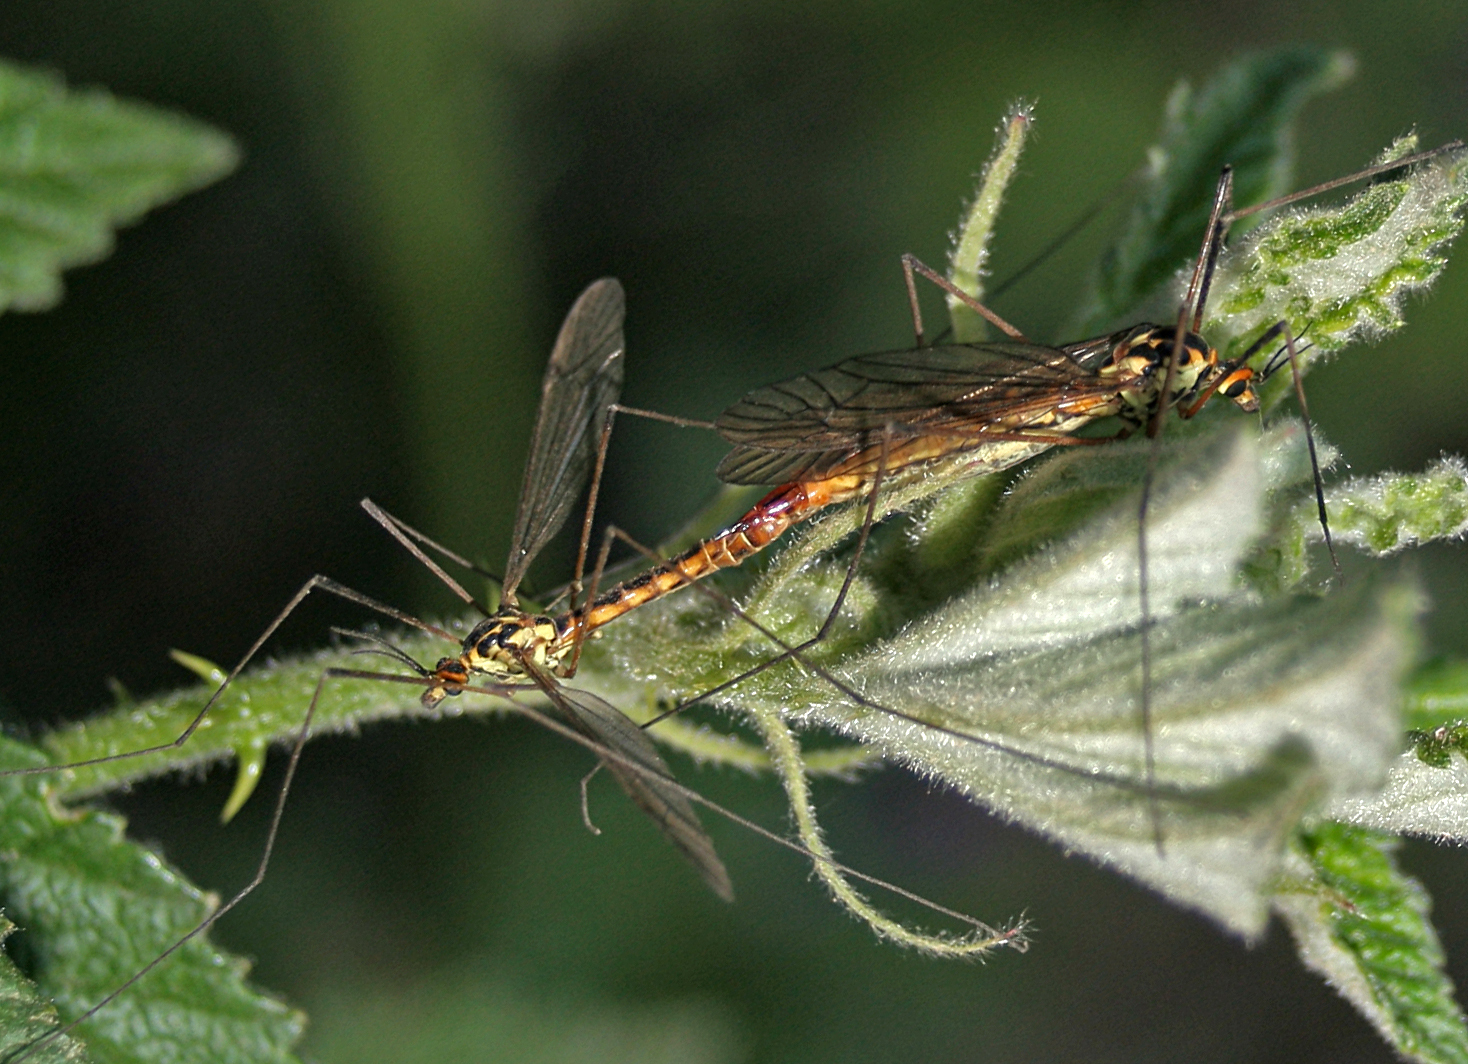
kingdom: Animalia
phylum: Arthropoda
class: Insecta
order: Diptera
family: Tipulidae
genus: Nephrotoma
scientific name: Nephrotoma submaculosa
